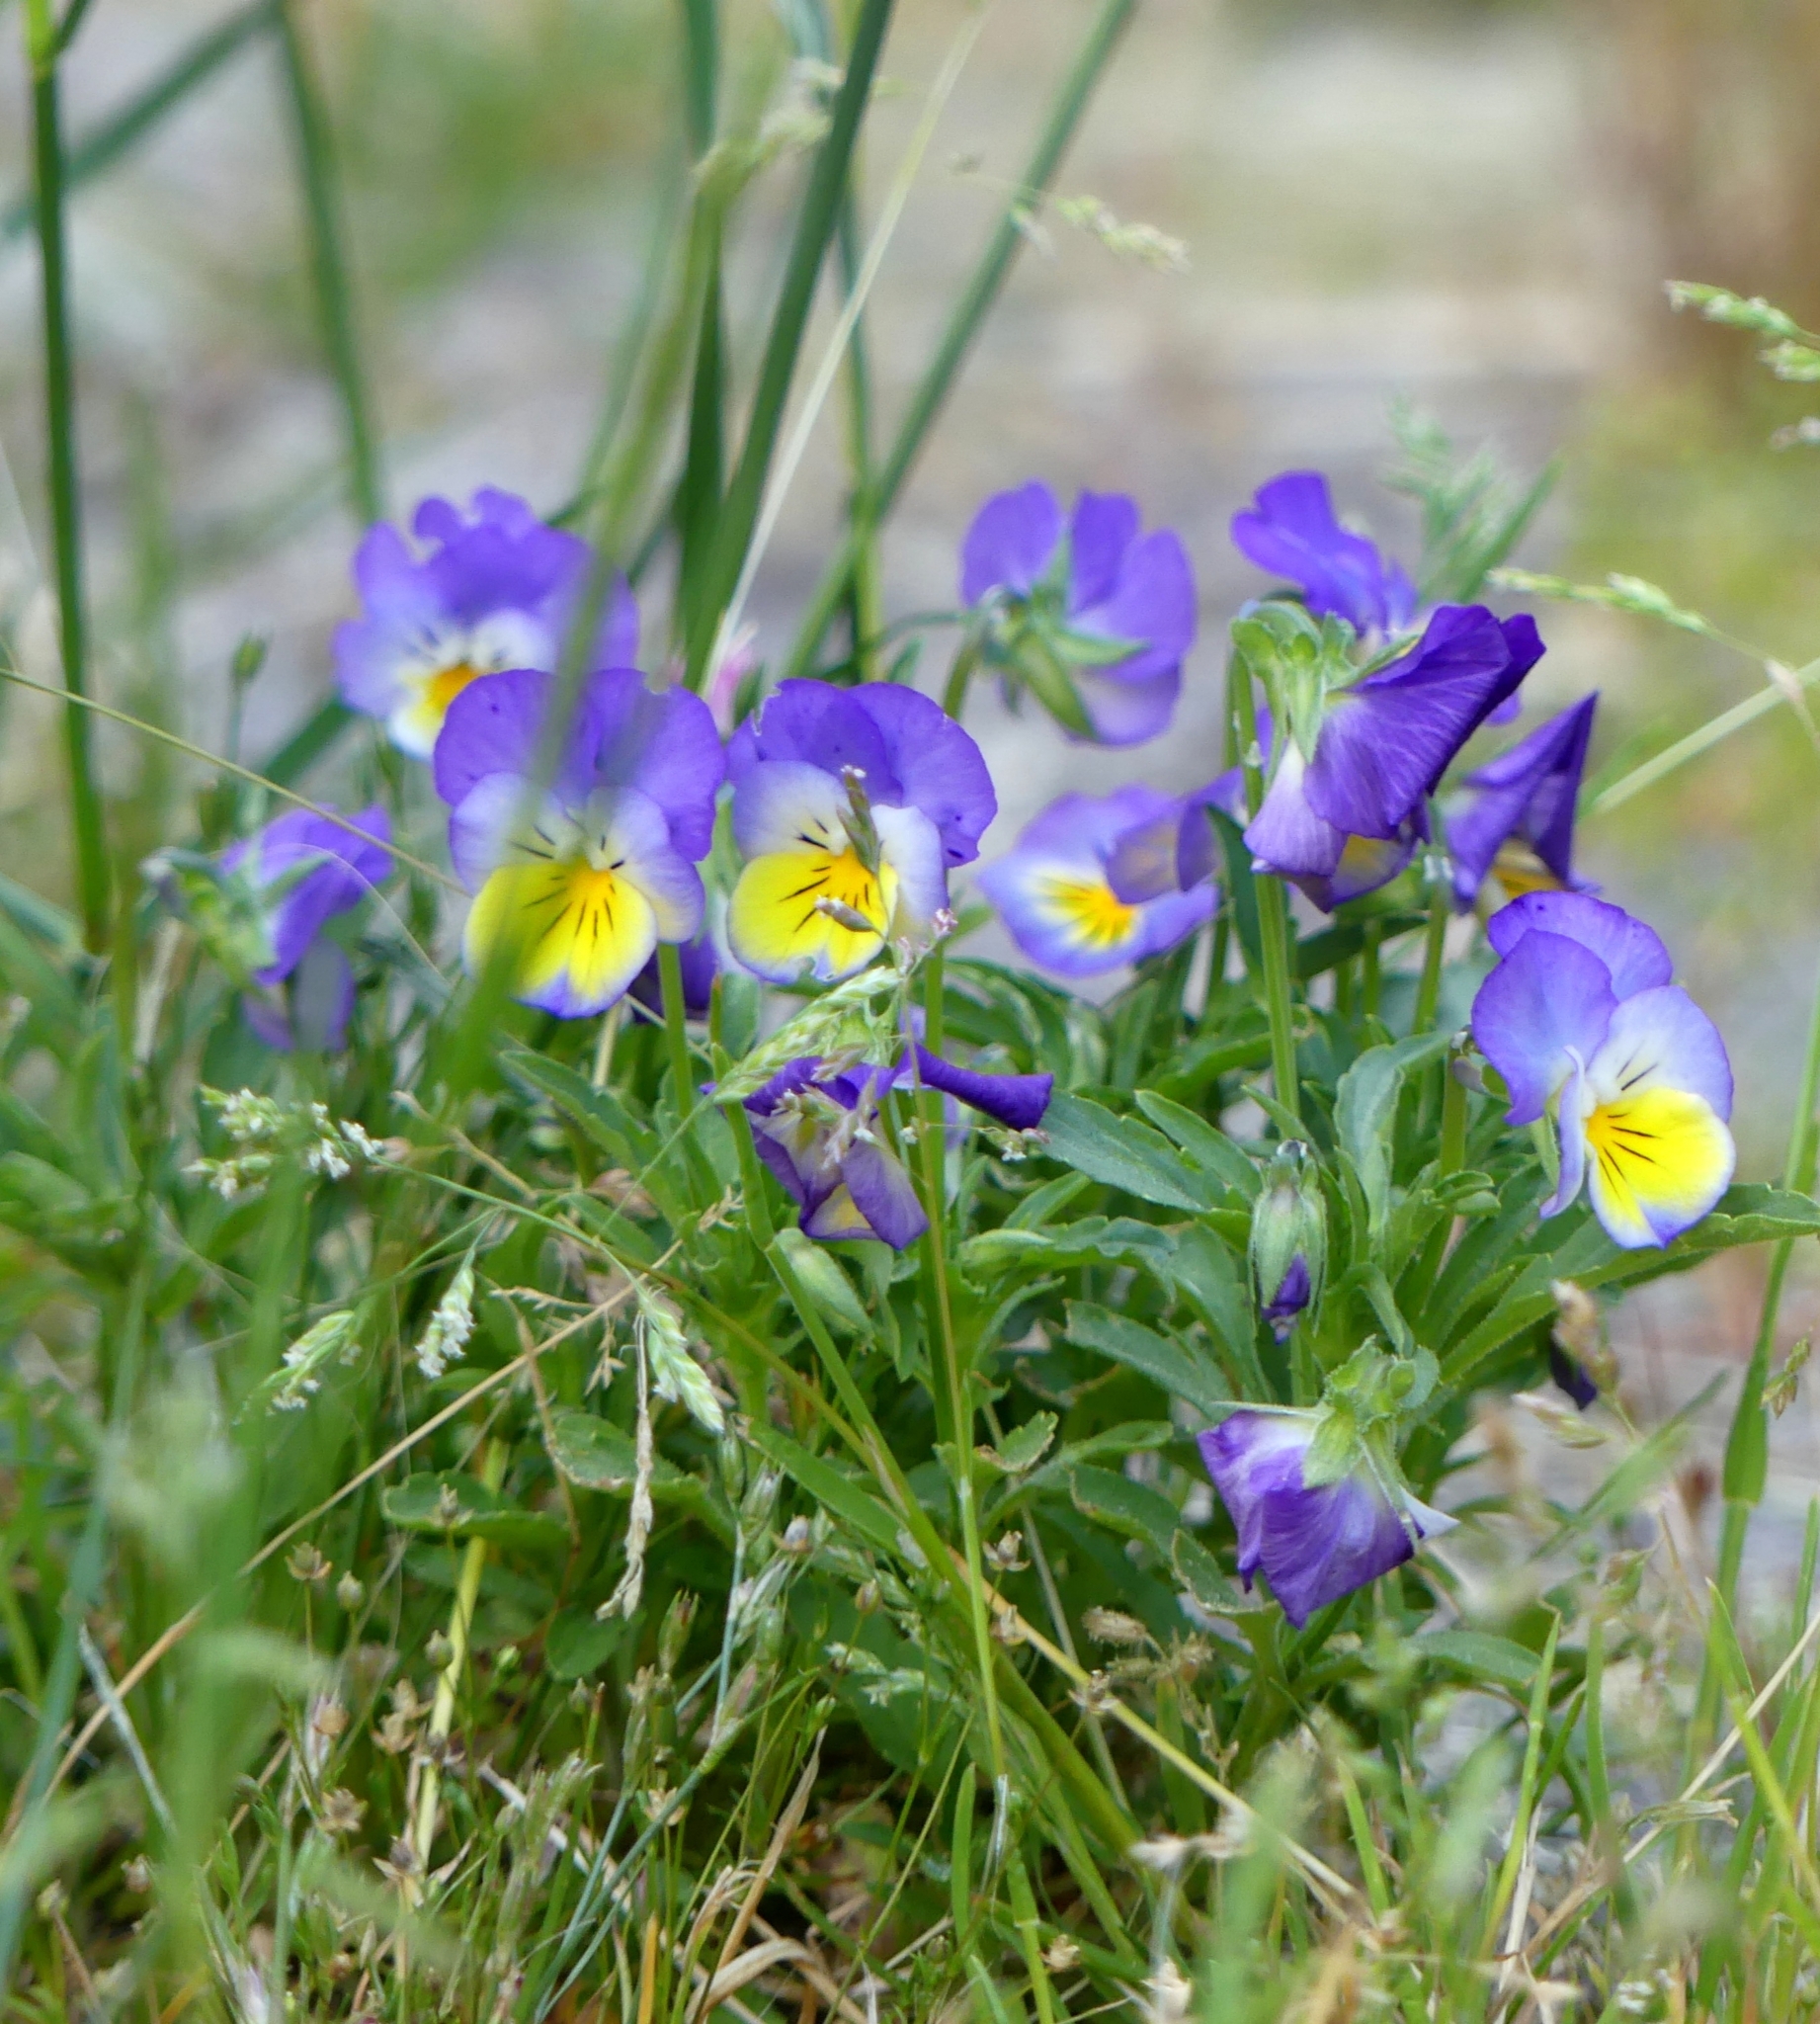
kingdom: Plantae
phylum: Tracheophyta
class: Magnoliopsida
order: Malpighiales
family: Violaceae
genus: Viola
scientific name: Viola tricolor
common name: Pansy
